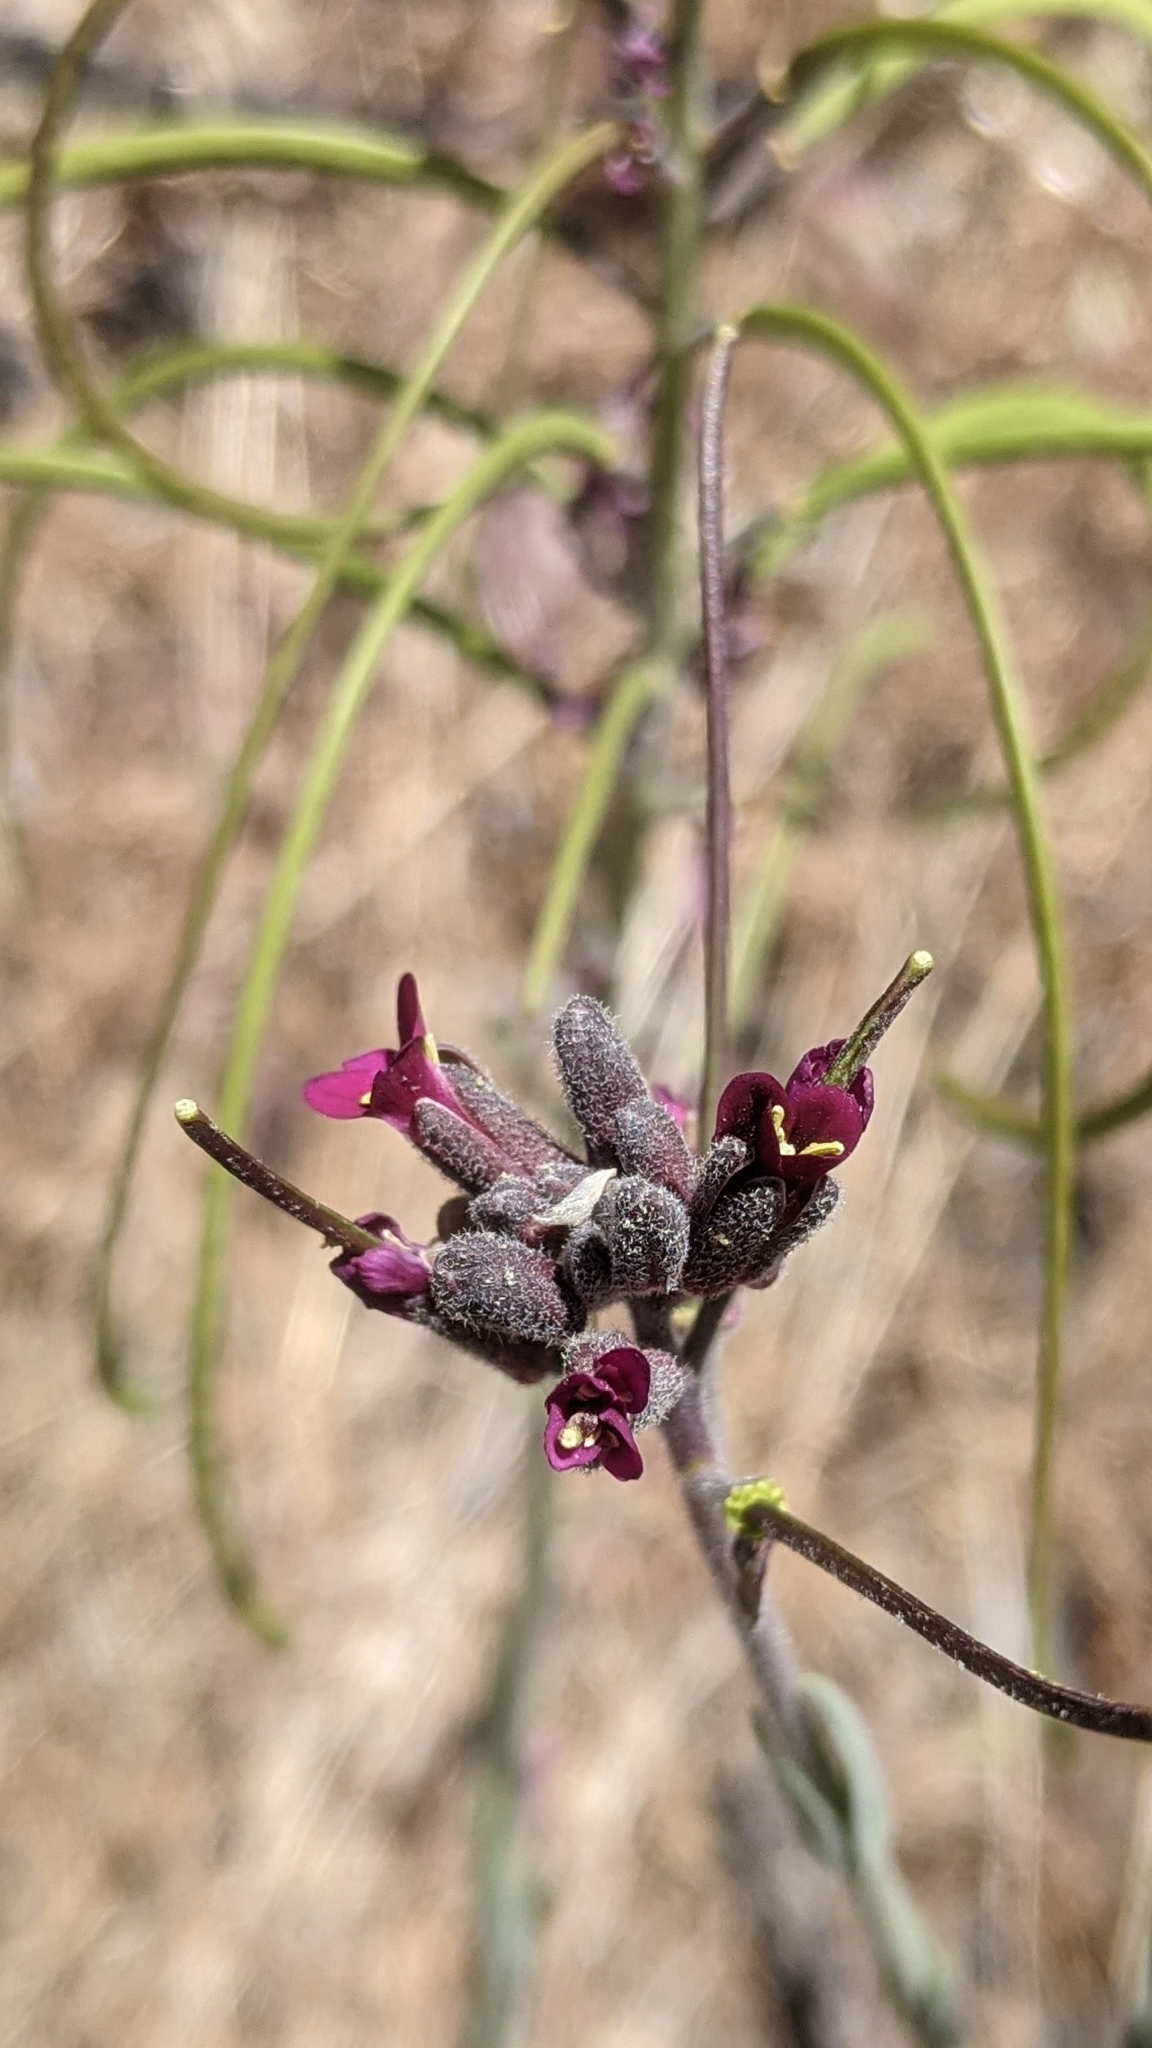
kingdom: Plantae
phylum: Tracheophyta
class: Magnoliopsida
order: Brassicales
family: Brassicaceae
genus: Boechera
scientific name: Boechera arcuata
